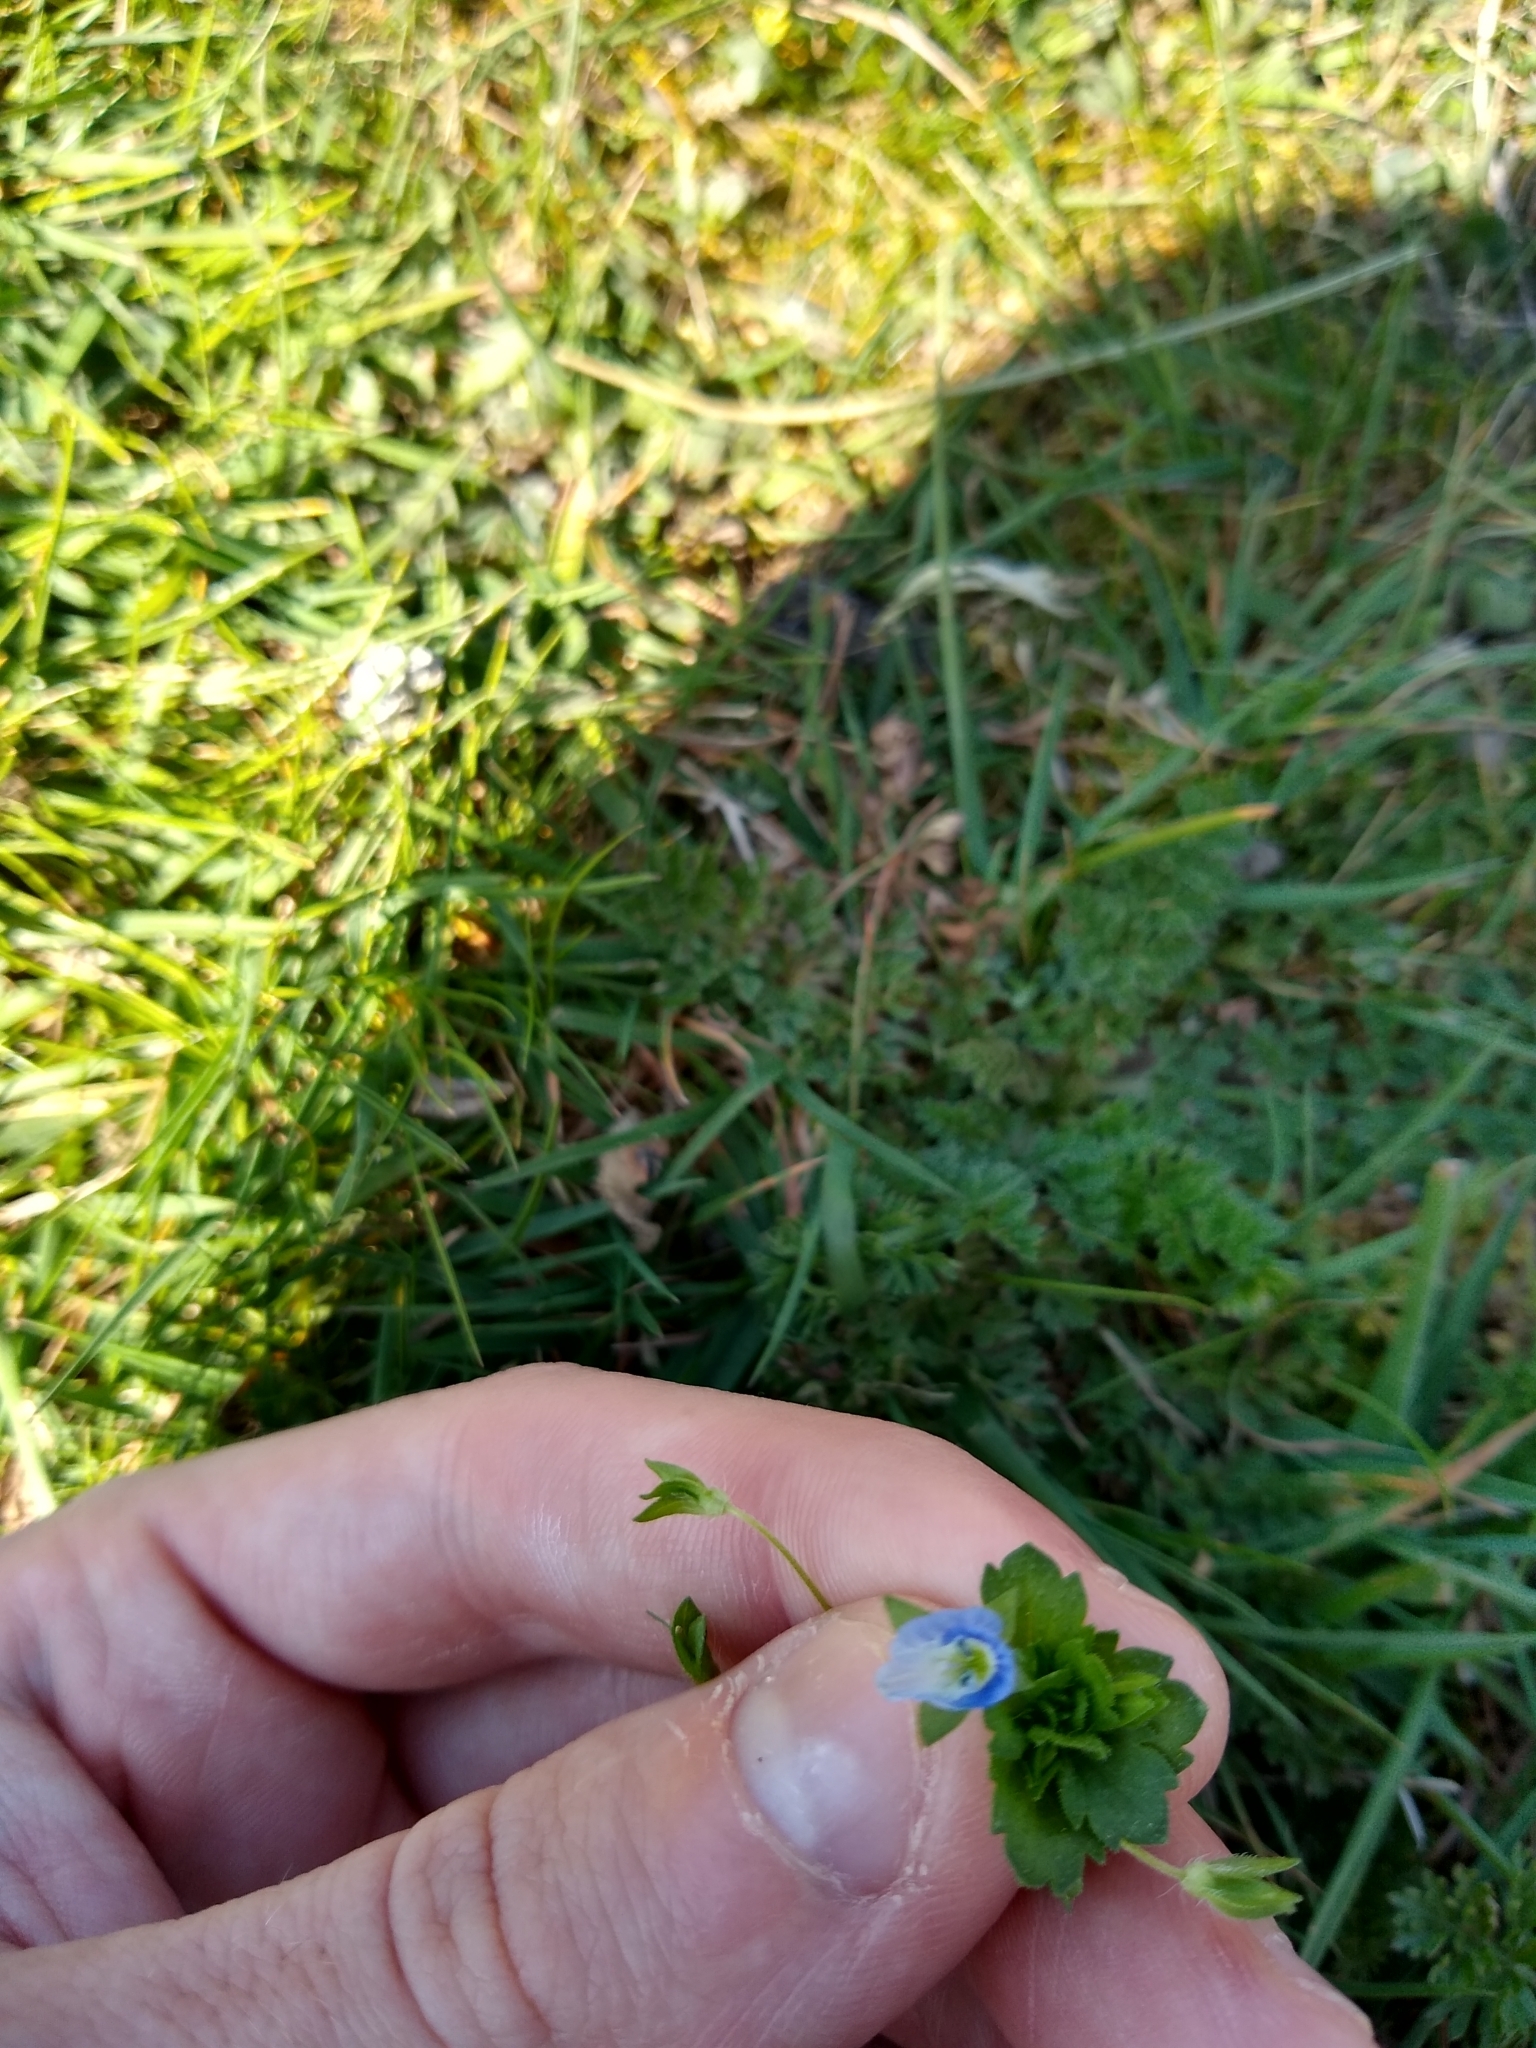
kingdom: Plantae
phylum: Tracheophyta
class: Magnoliopsida
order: Lamiales
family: Plantaginaceae
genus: Veronica
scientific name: Veronica persica
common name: Common field-speedwell
